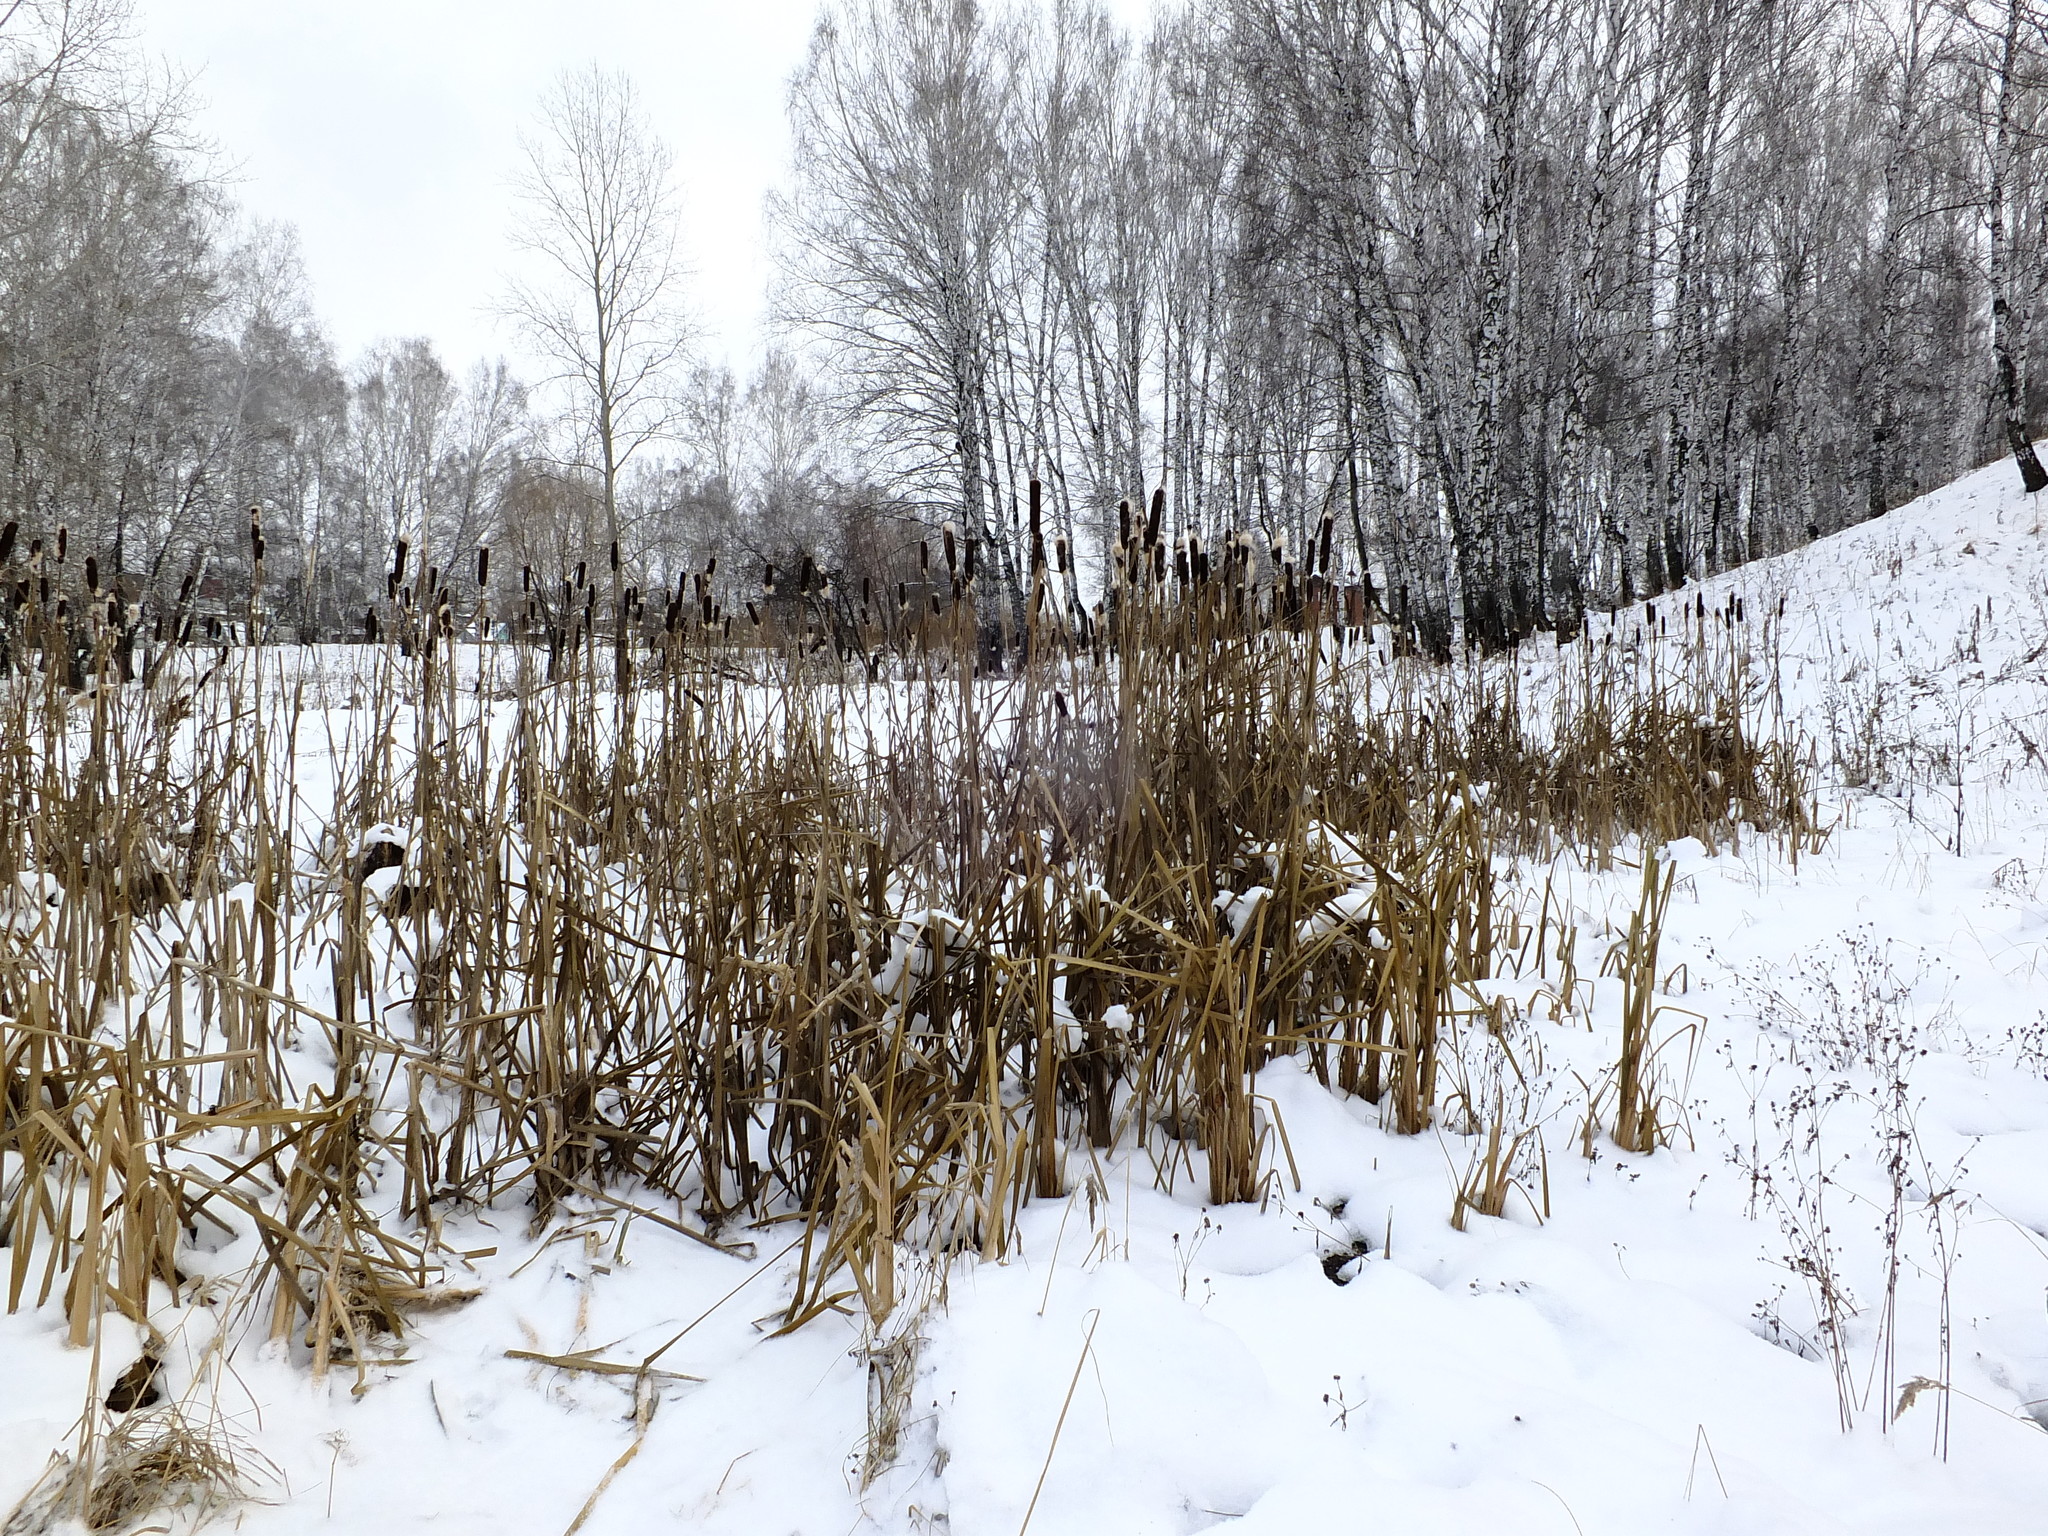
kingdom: Plantae
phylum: Tracheophyta
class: Liliopsida
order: Poales
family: Typhaceae
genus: Typha
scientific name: Typha latifolia
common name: Broadleaf cattail
